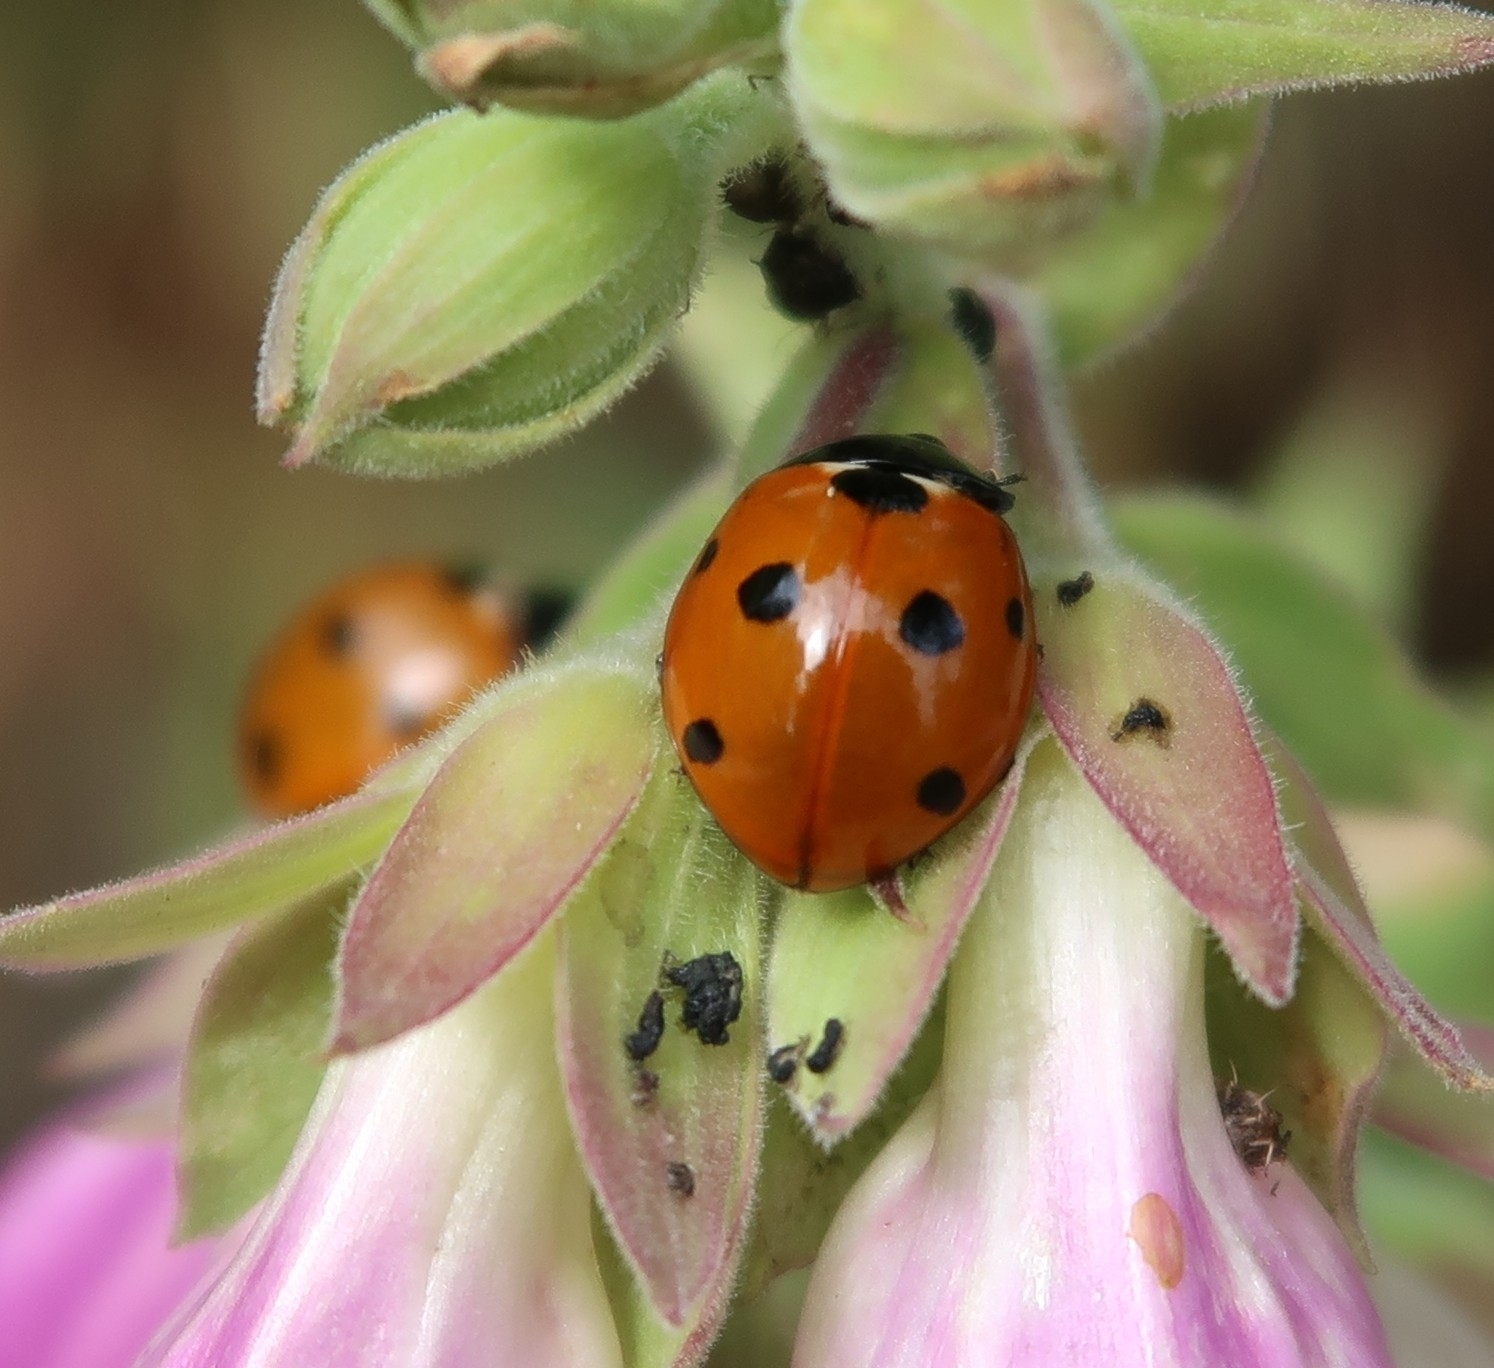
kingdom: Animalia
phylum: Arthropoda
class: Insecta
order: Coleoptera
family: Coccinellidae
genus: Coccinella
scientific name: Coccinella septempunctata
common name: Sevenspotted lady beetle
